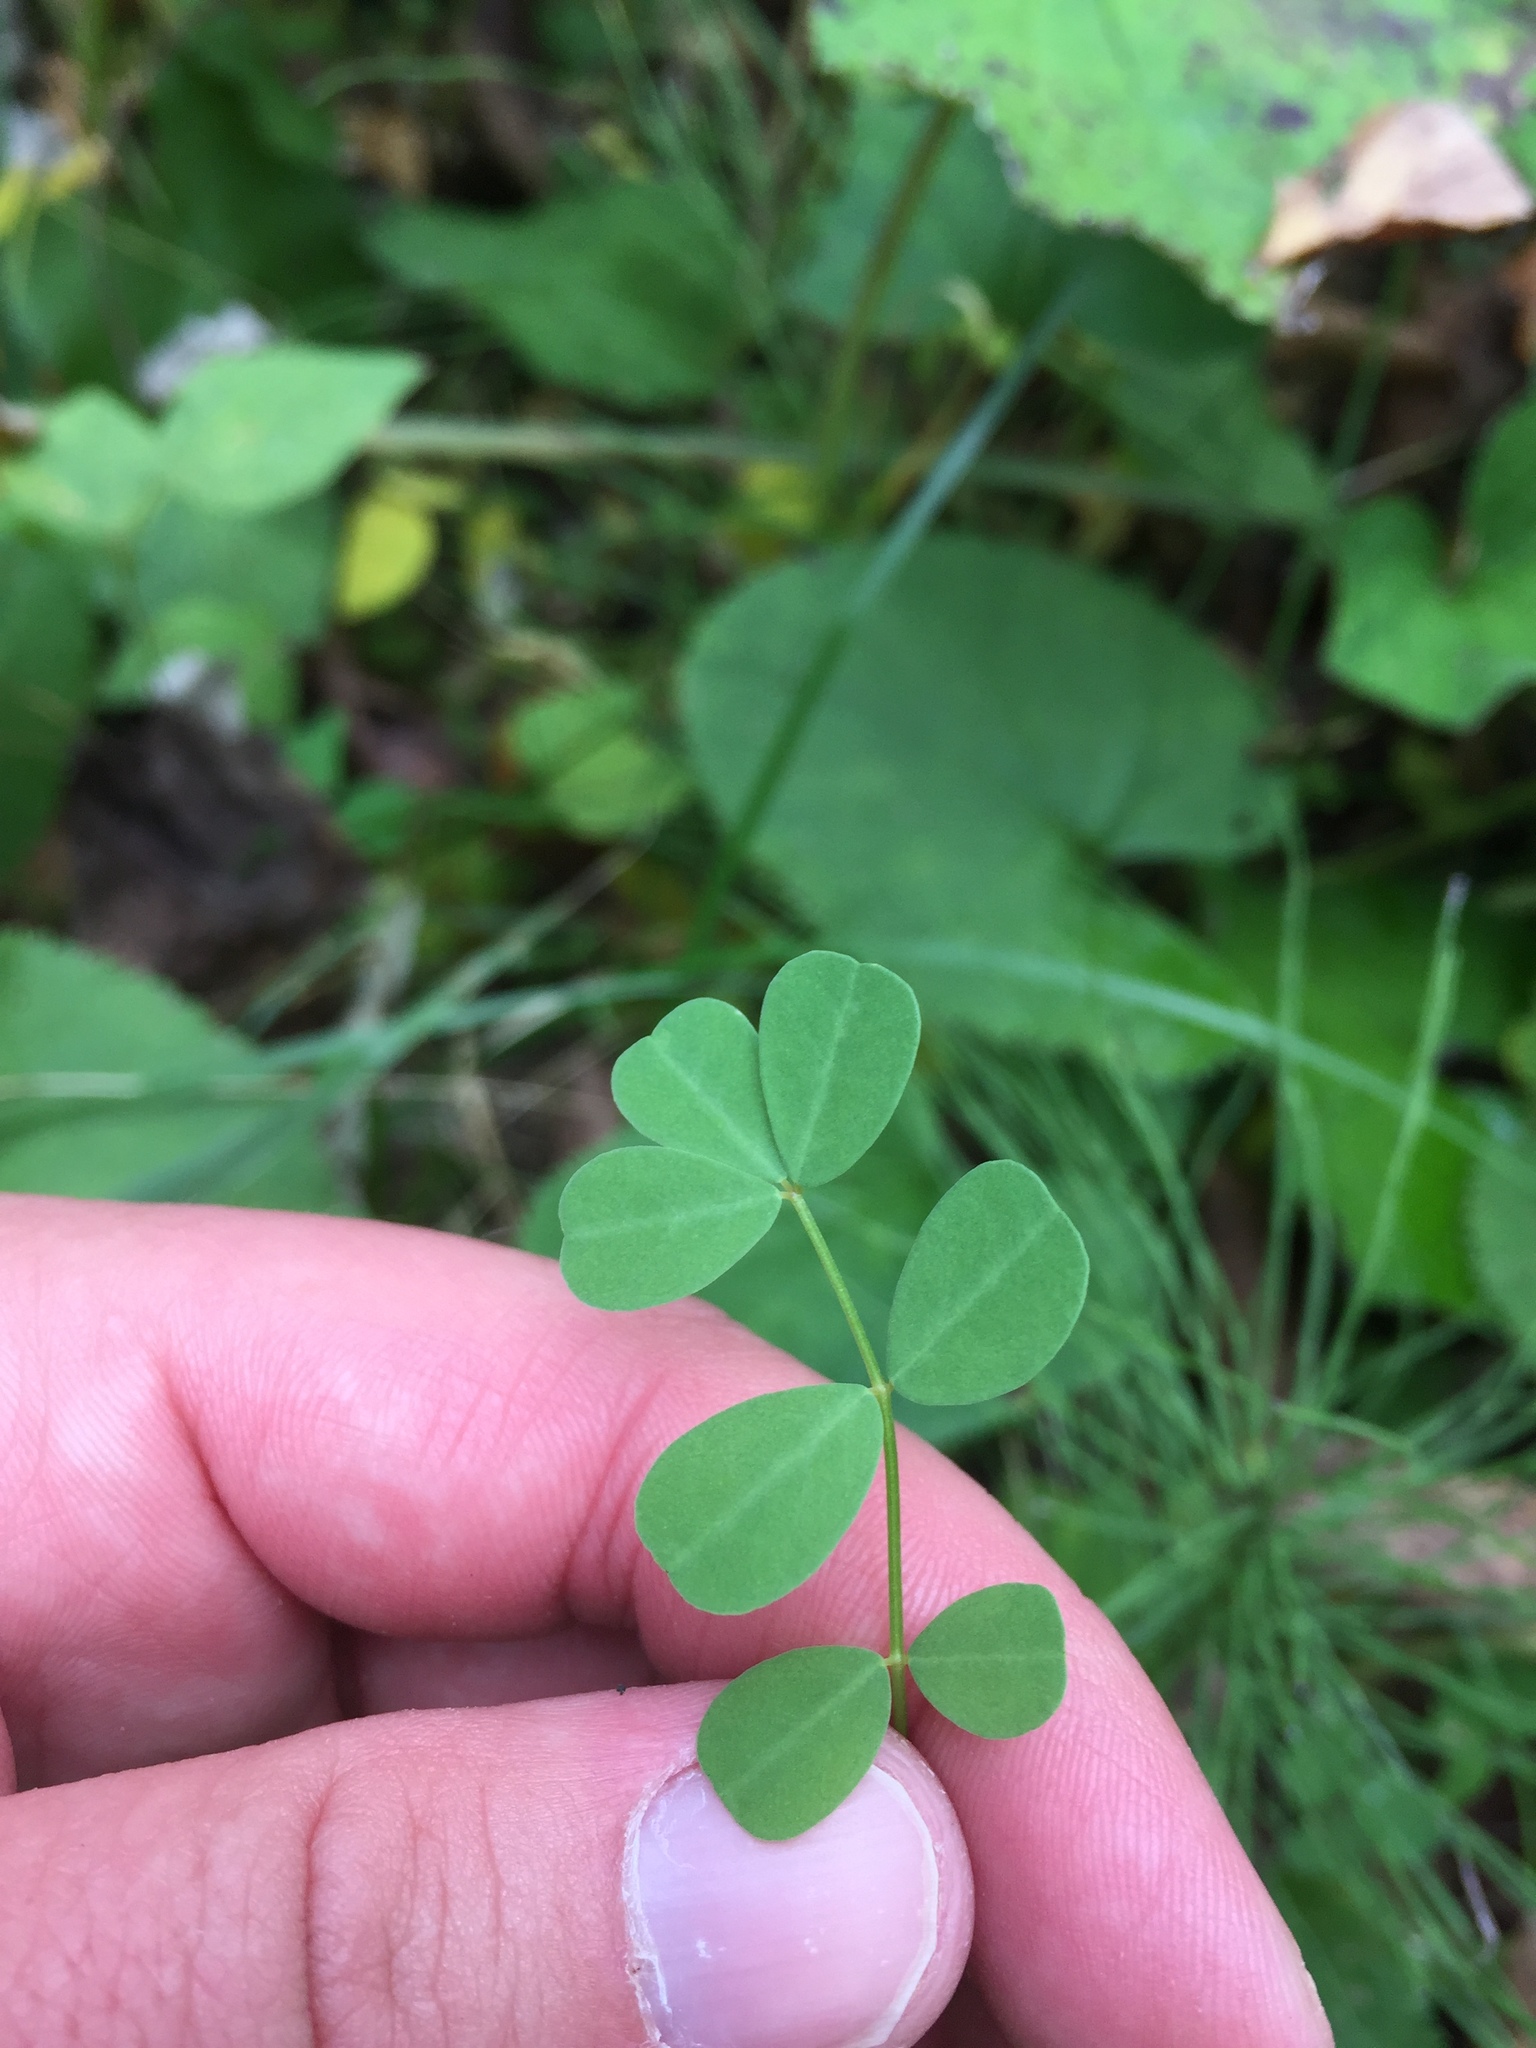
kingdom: Plantae
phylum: Tracheophyta
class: Magnoliopsida
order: Fabales
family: Fabaceae
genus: Coronilla
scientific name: Coronilla varia
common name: Crownvetch
